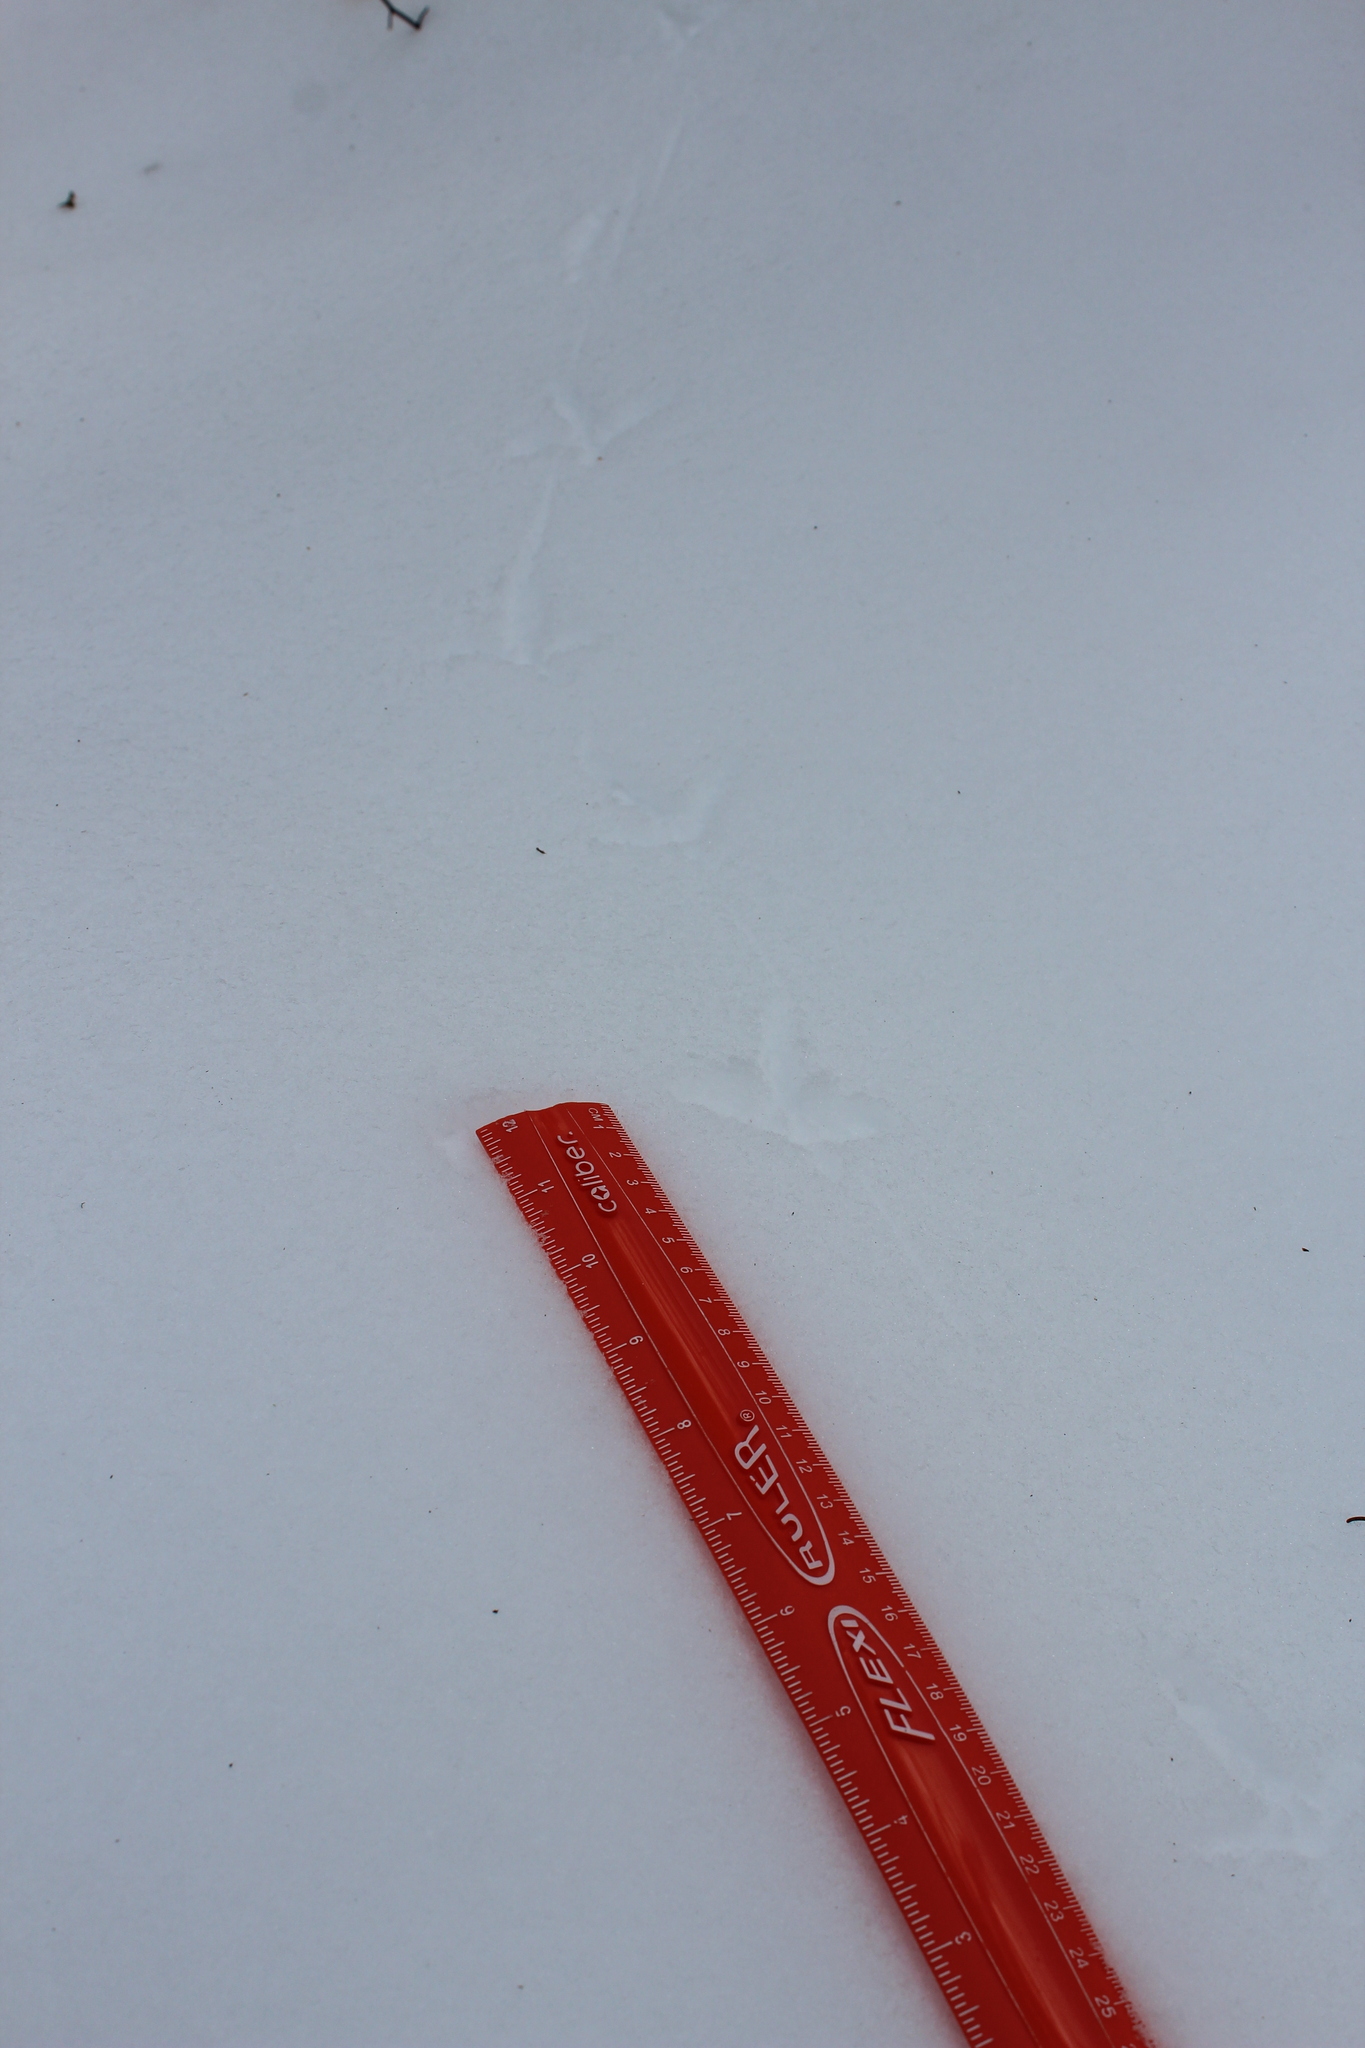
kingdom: Animalia
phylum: Chordata
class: Aves
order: Galliformes
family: Phasianidae
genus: Bonasa
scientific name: Bonasa umbellus
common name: Ruffed grouse
